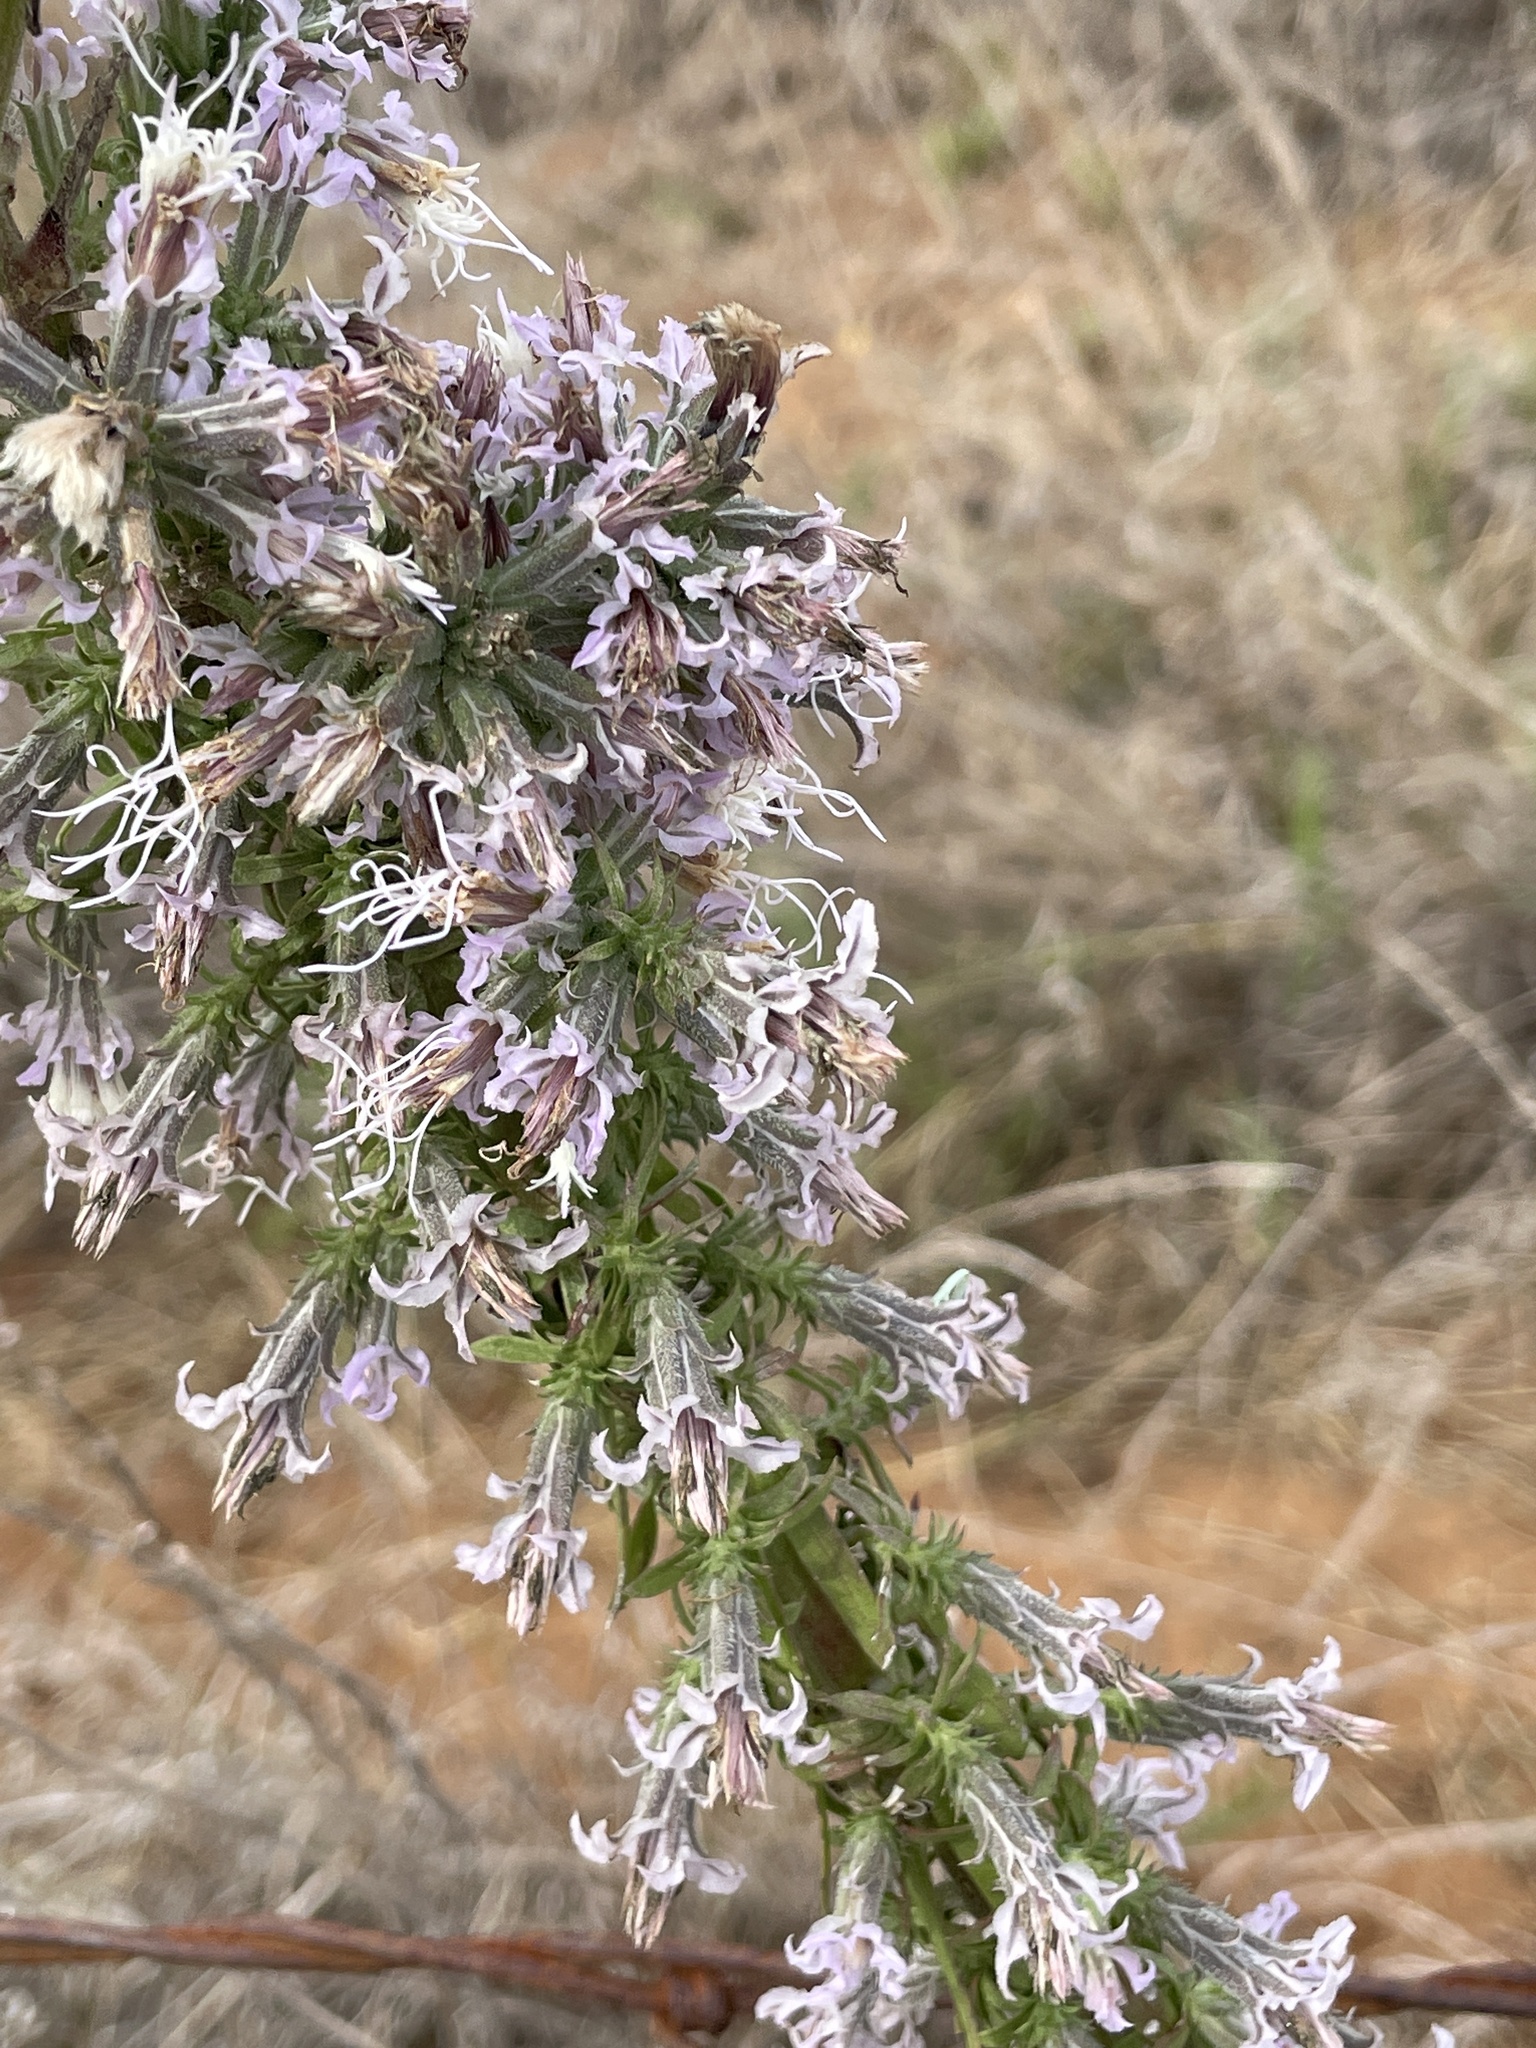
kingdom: Plantae
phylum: Tracheophyta
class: Magnoliopsida
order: Asterales
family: Asteraceae
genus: Liatris
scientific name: Liatris carizzana
